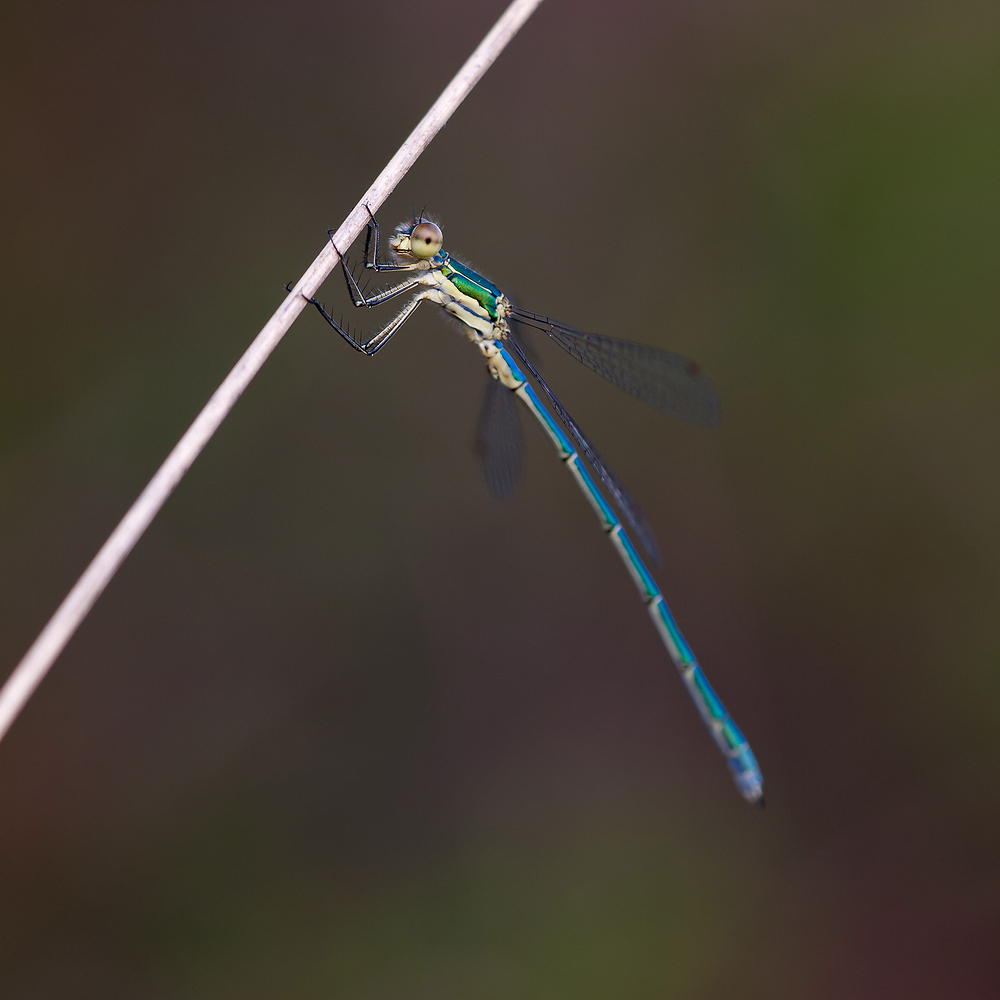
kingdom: Animalia
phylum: Arthropoda
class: Insecta
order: Odonata
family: Lestidae
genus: Lestes
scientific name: Lestes virens
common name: Small emerald spreadwing
